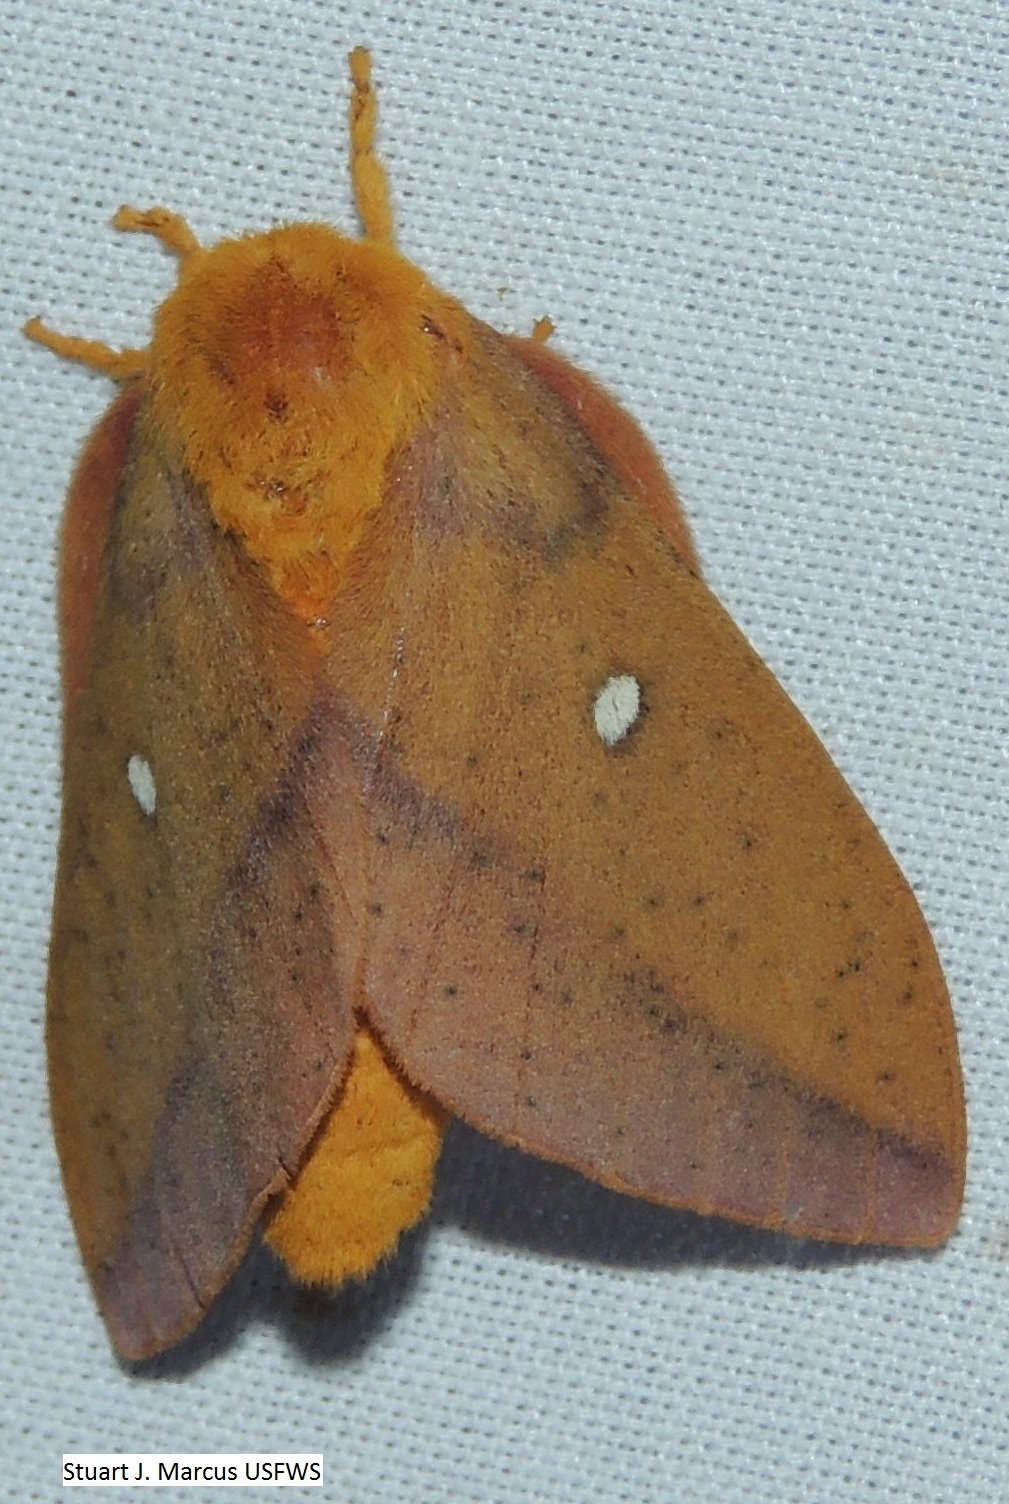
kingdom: Animalia
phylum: Arthropoda
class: Insecta
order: Lepidoptera
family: Saturniidae
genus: Anisota
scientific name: Anisota stigma
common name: Spiny oakworm moth
